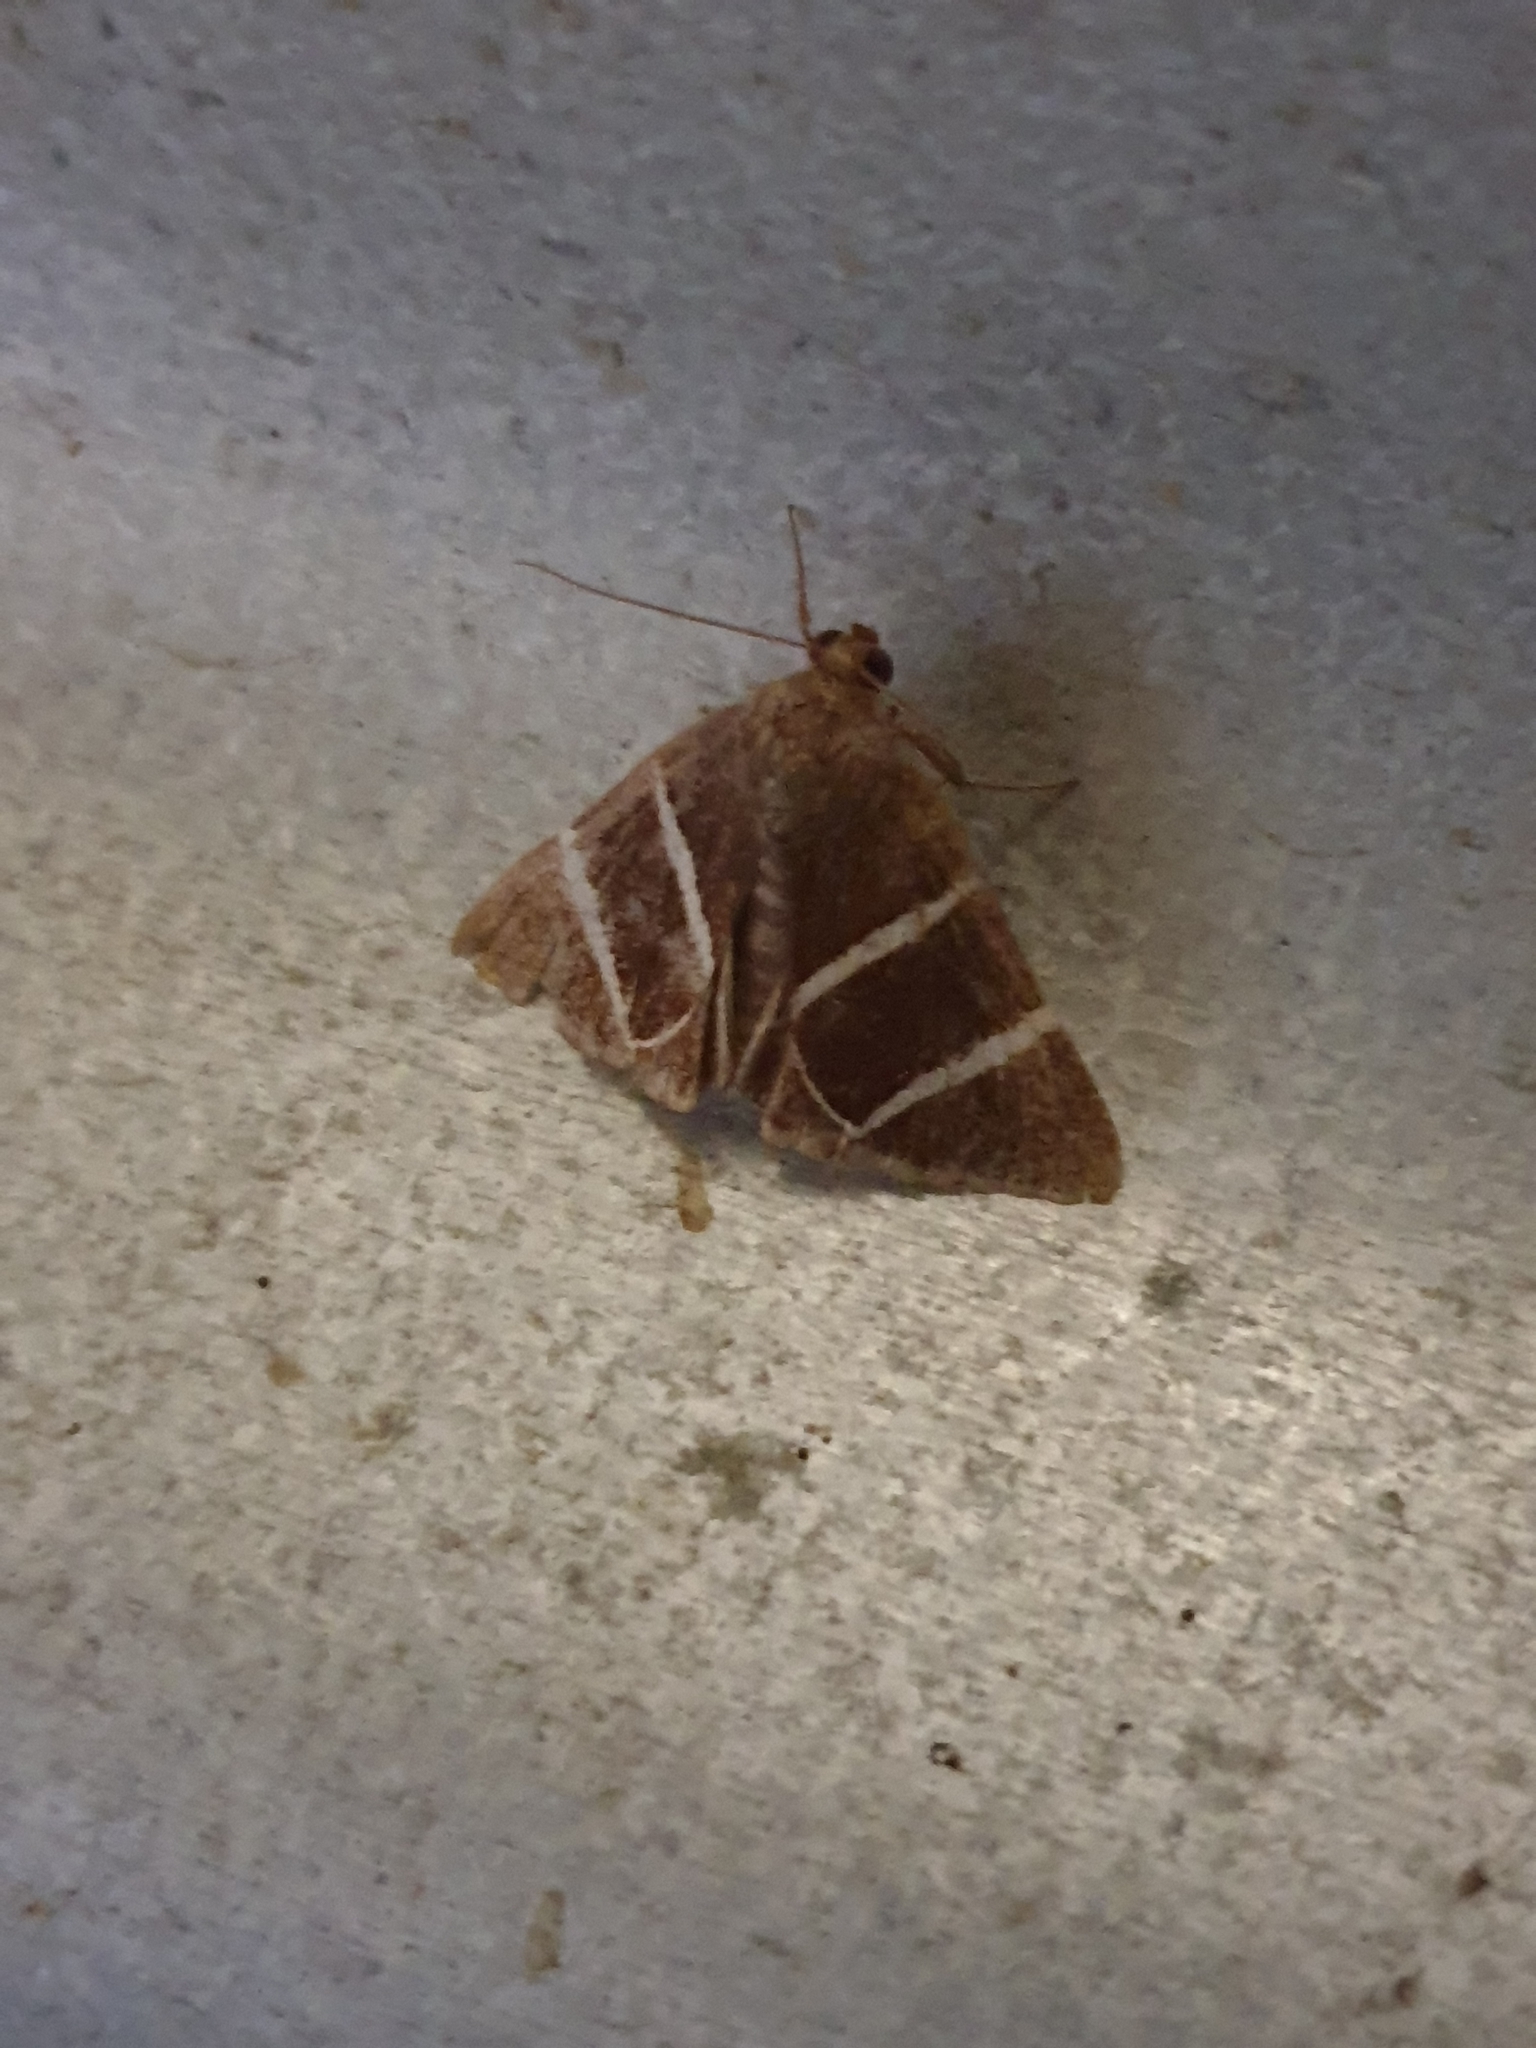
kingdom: Animalia
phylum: Arthropoda
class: Insecta
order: Lepidoptera
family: Erebidae
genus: Grammodes
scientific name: Grammodes justa
